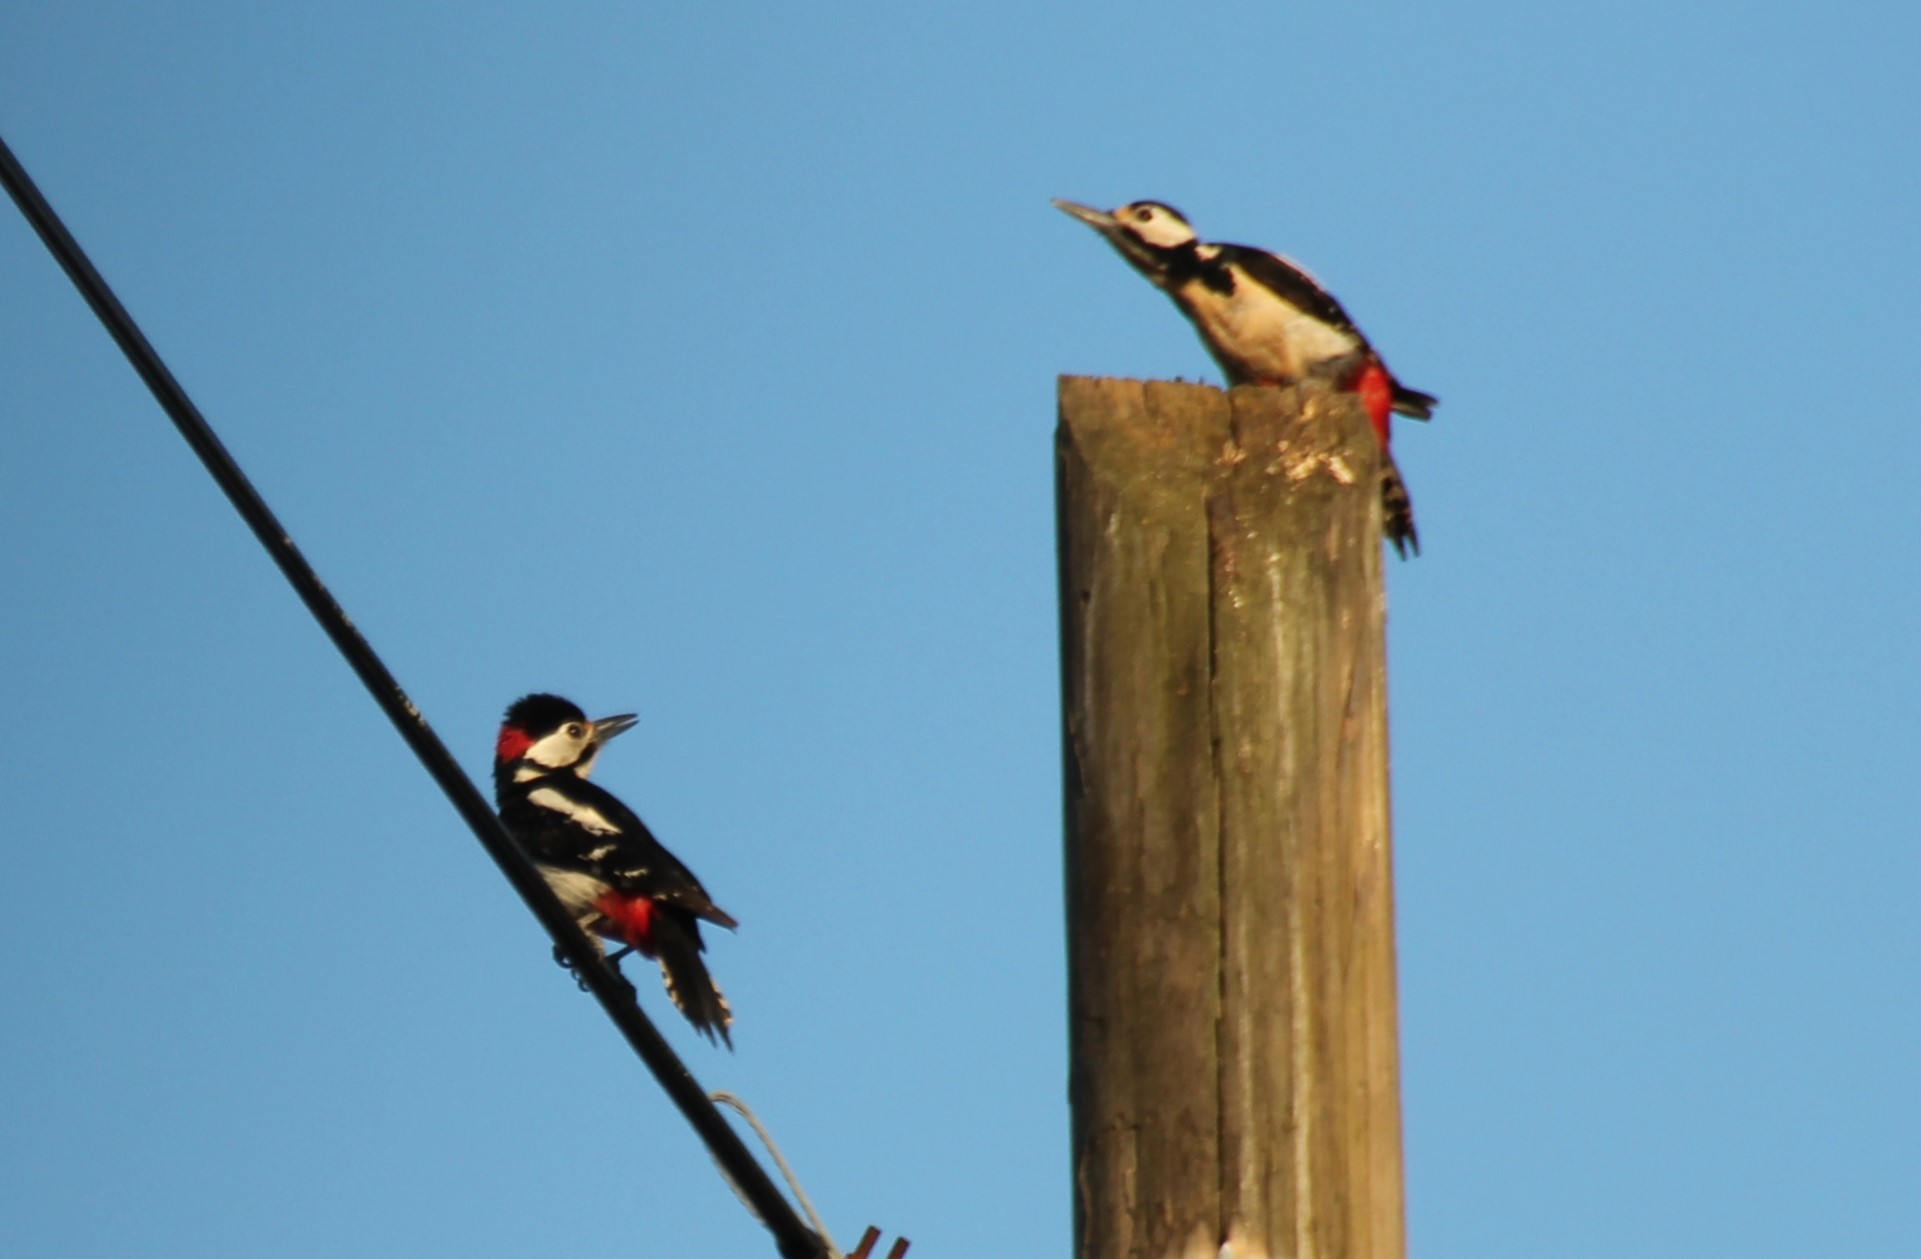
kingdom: Animalia
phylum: Chordata
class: Aves
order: Piciformes
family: Picidae
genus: Dendrocopos
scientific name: Dendrocopos major
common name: Great spotted woodpecker
